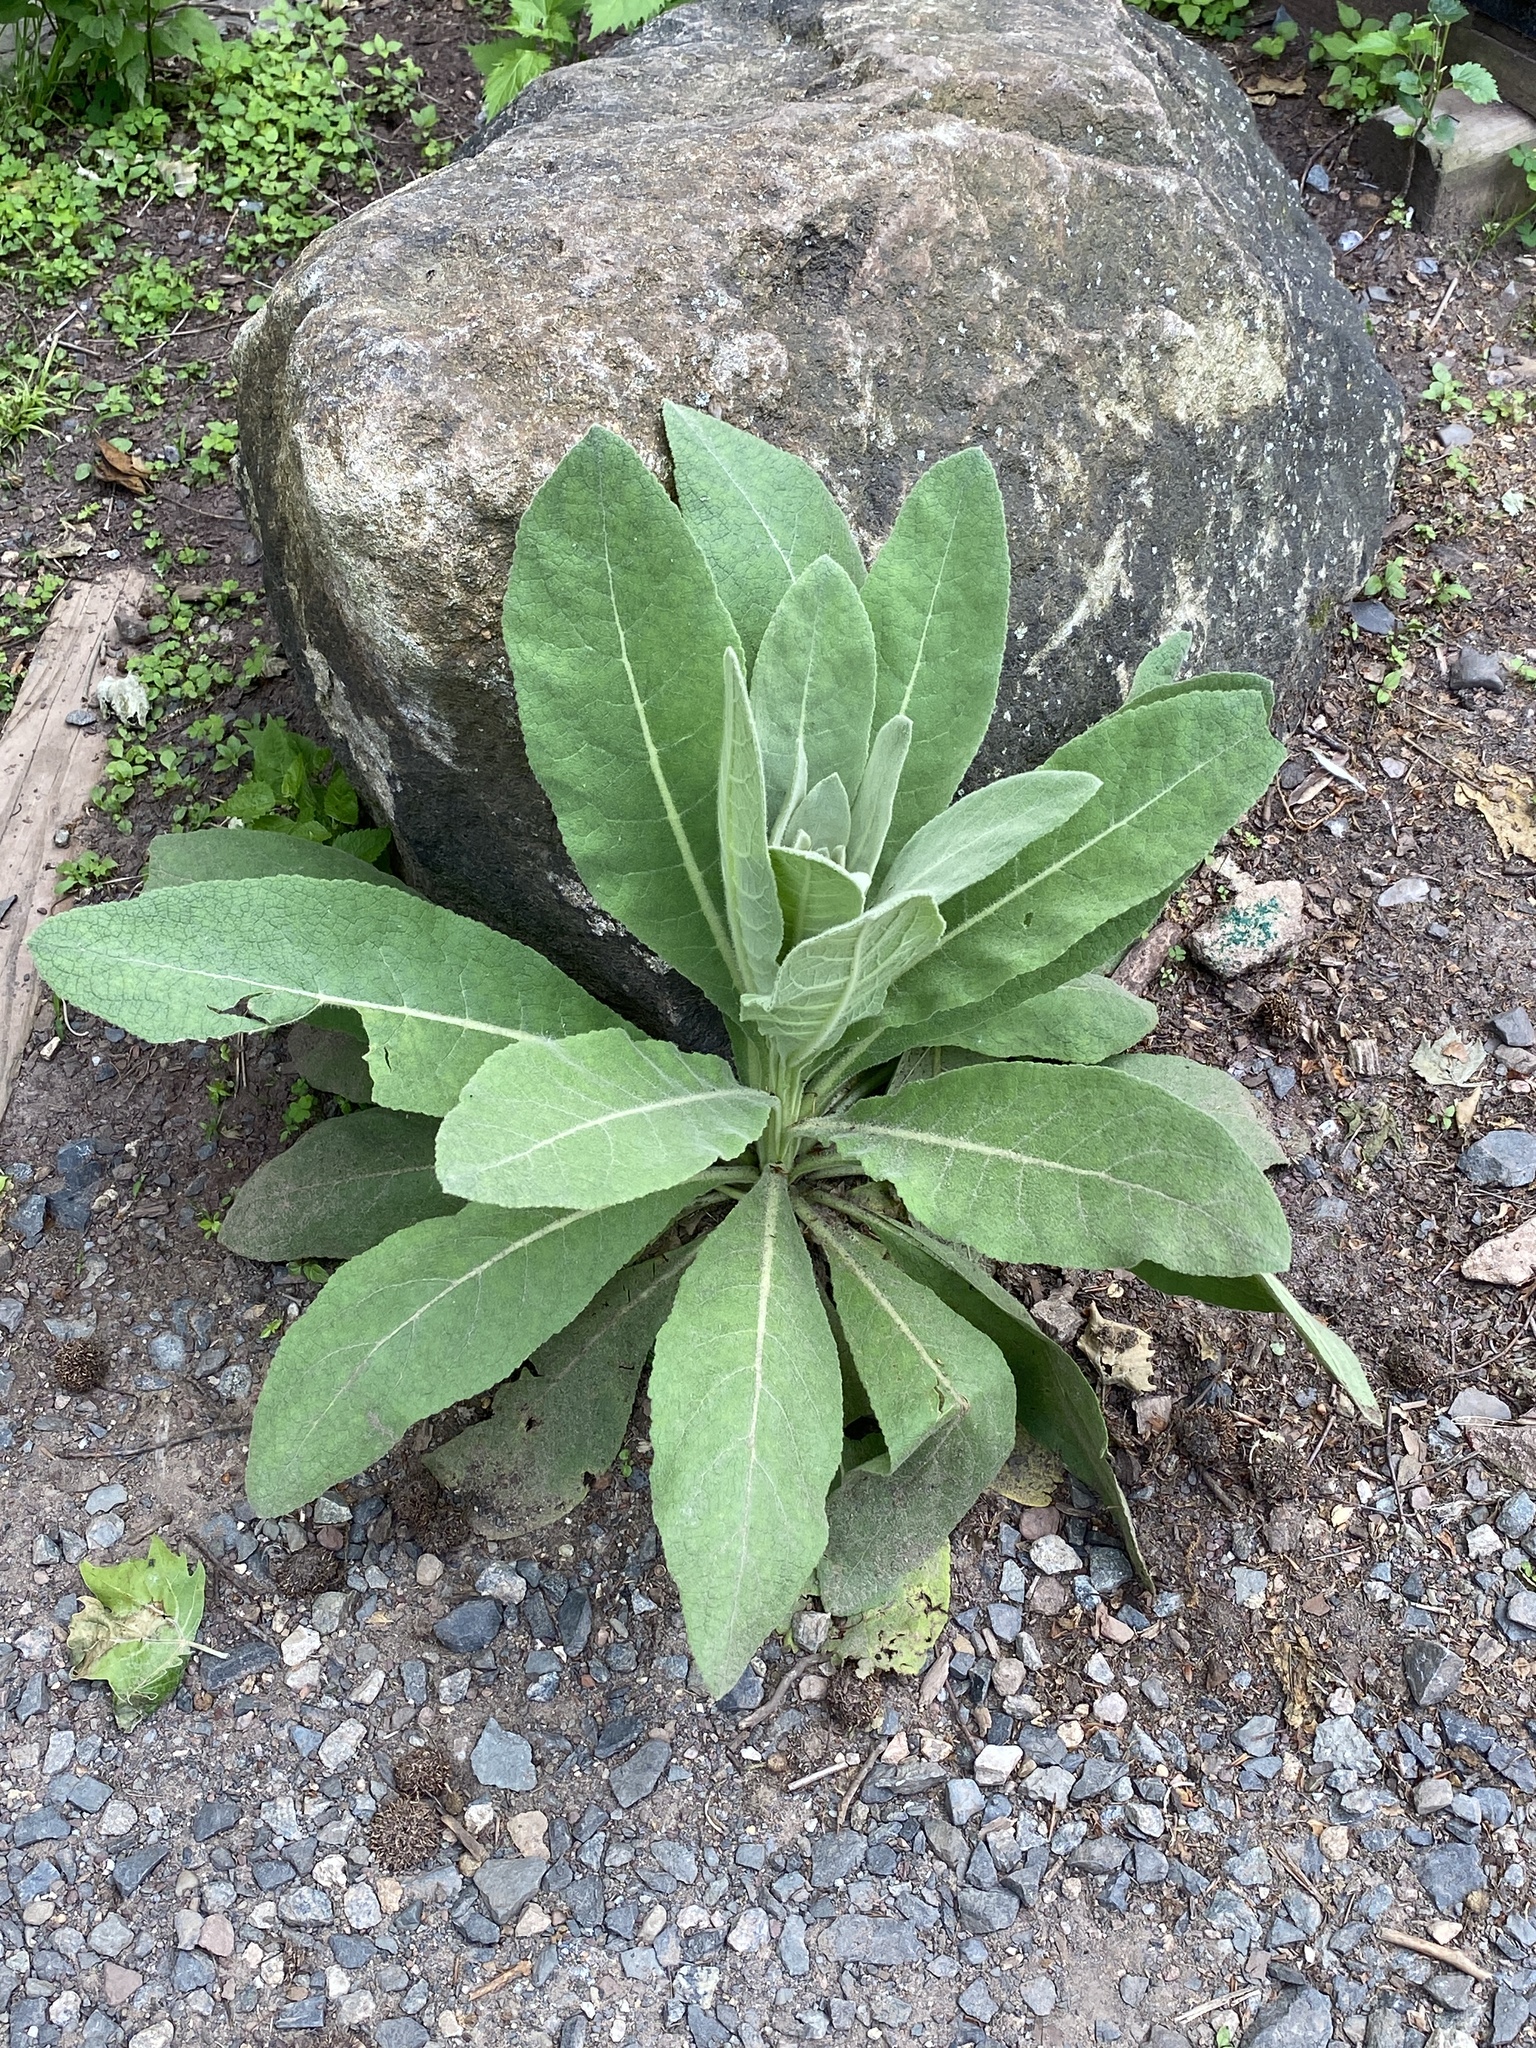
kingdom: Plantae
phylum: Tracheophyta
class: Magnoliopsida
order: Lamiales
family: Scrophulariaceae
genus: Verbascum
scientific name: Verbascum thapsus
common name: Common mullein
